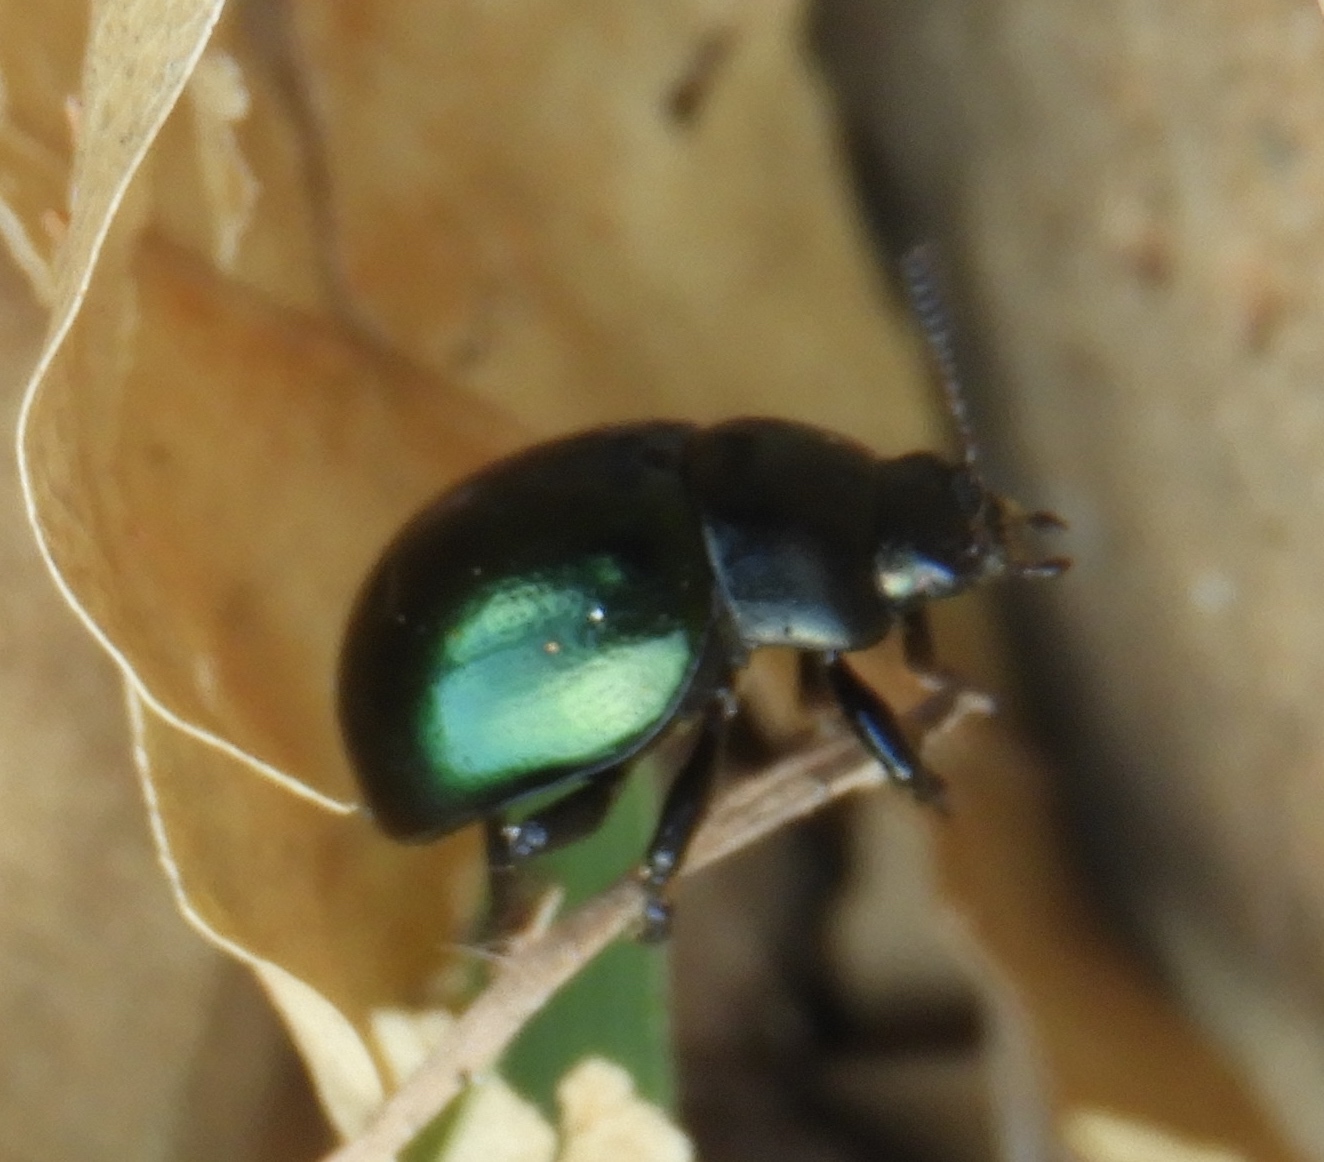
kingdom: Animalia
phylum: Arthropoda
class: Insecta
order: Coleoptera
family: Chrysomelidae
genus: Leptinotarsa
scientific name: Leptinotarsa haldemani
